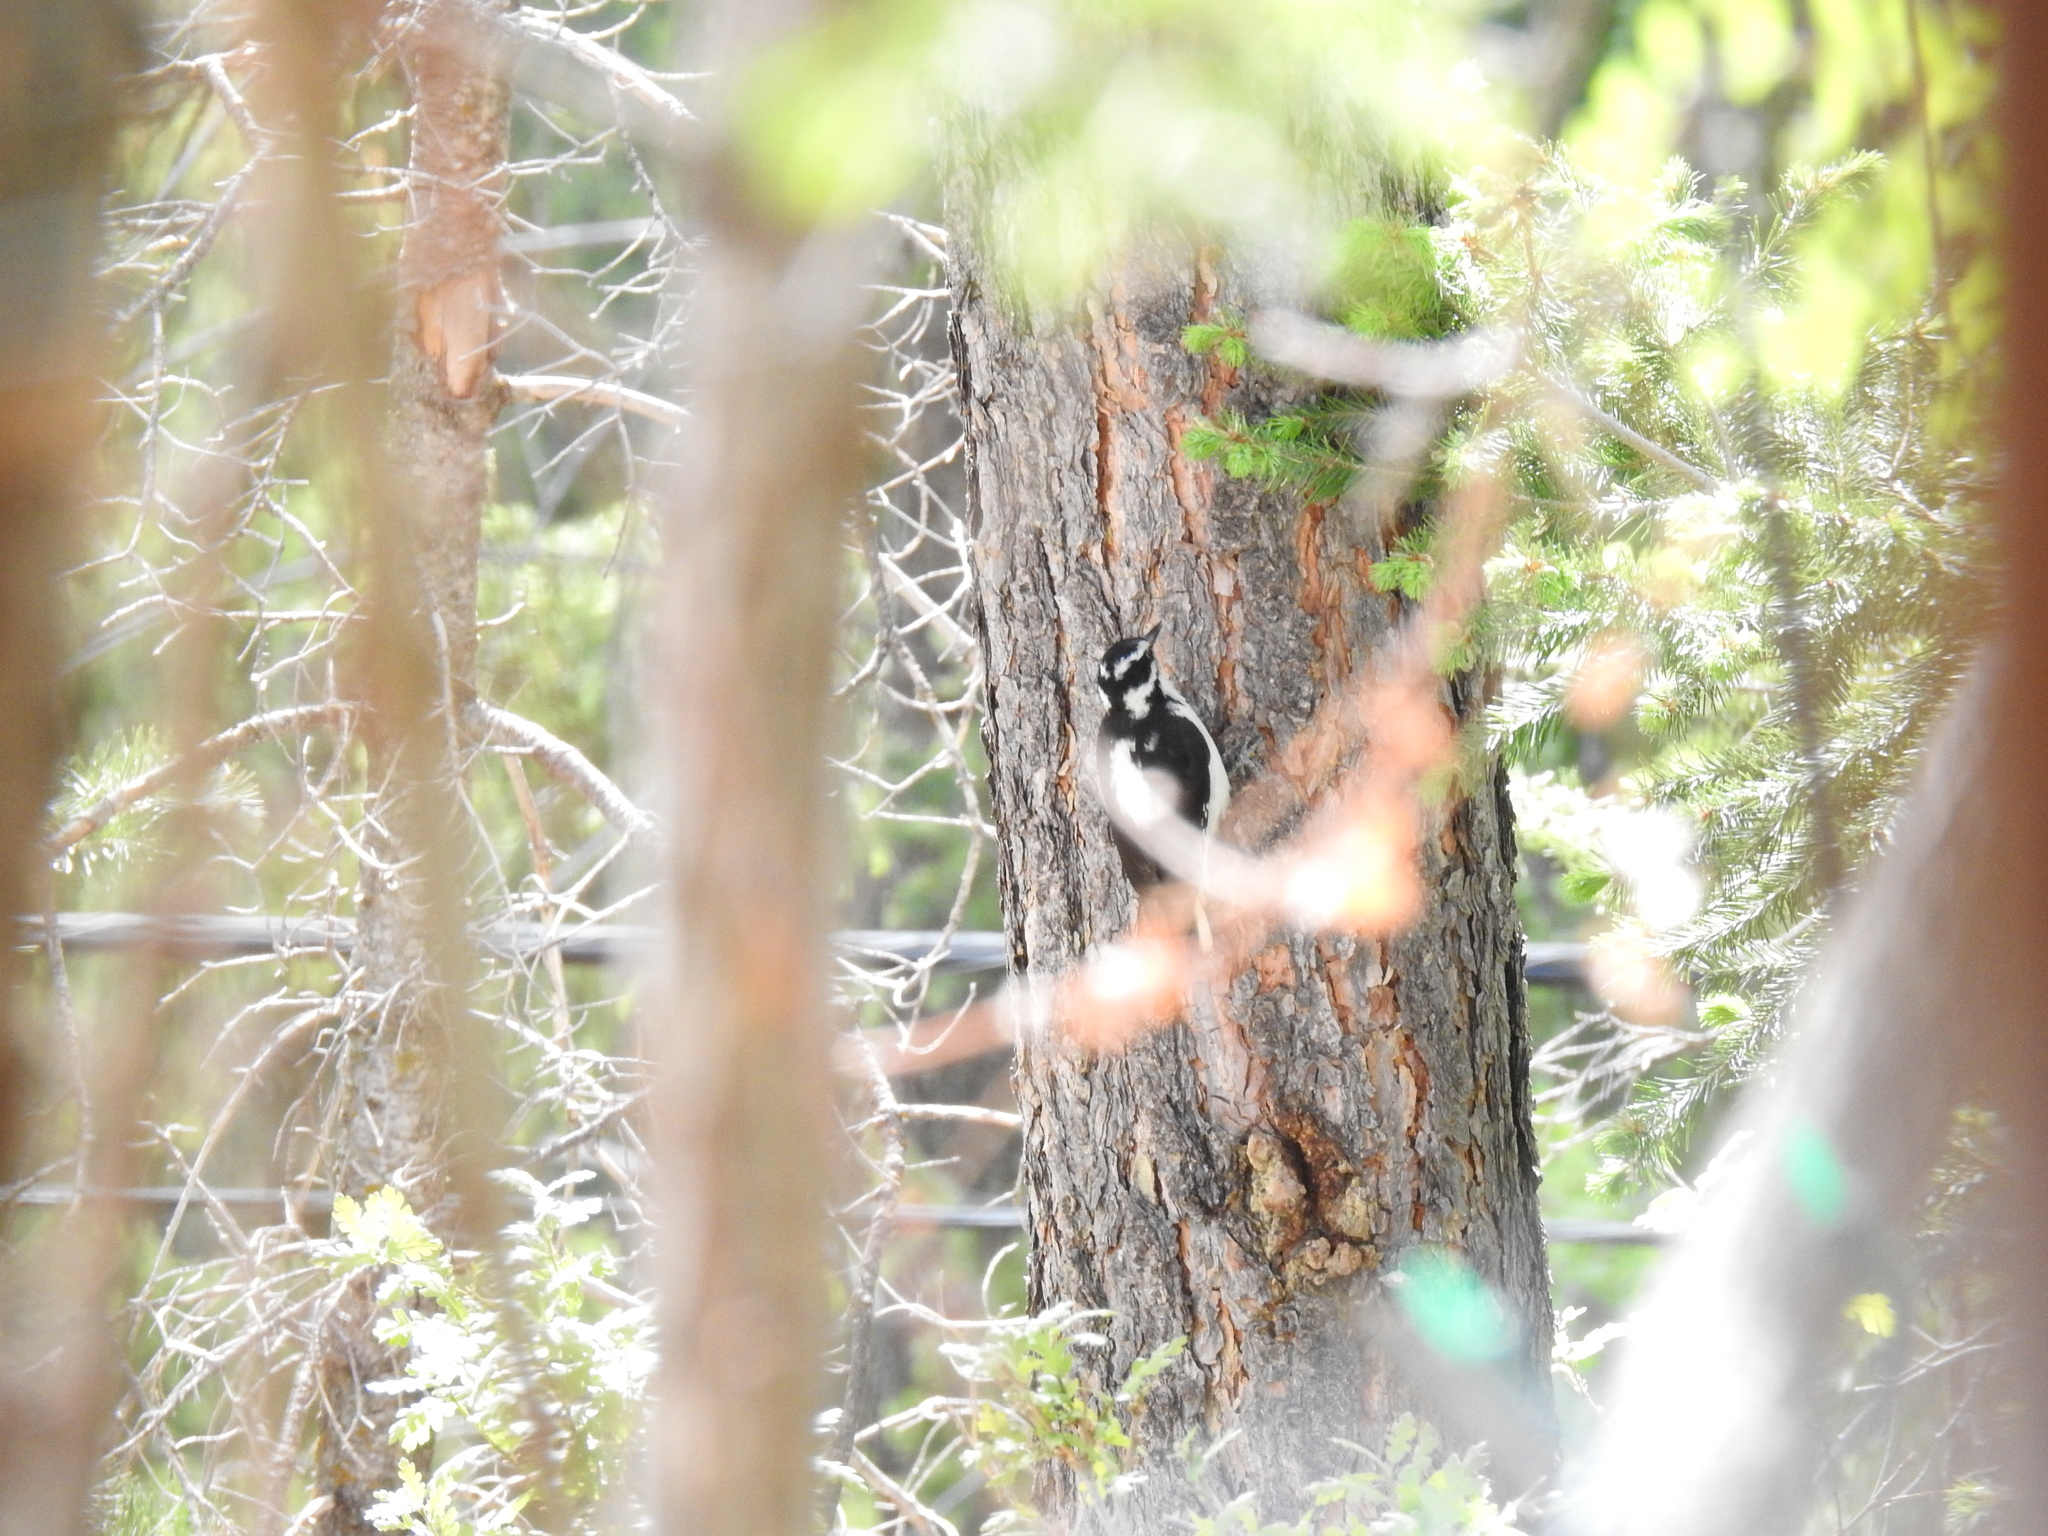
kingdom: Animalia
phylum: Chordata
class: Aves
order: Piciformes
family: Picidae
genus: Leuconotopicus
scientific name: Leuconotopicus villosus
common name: Hairy woodpecker
